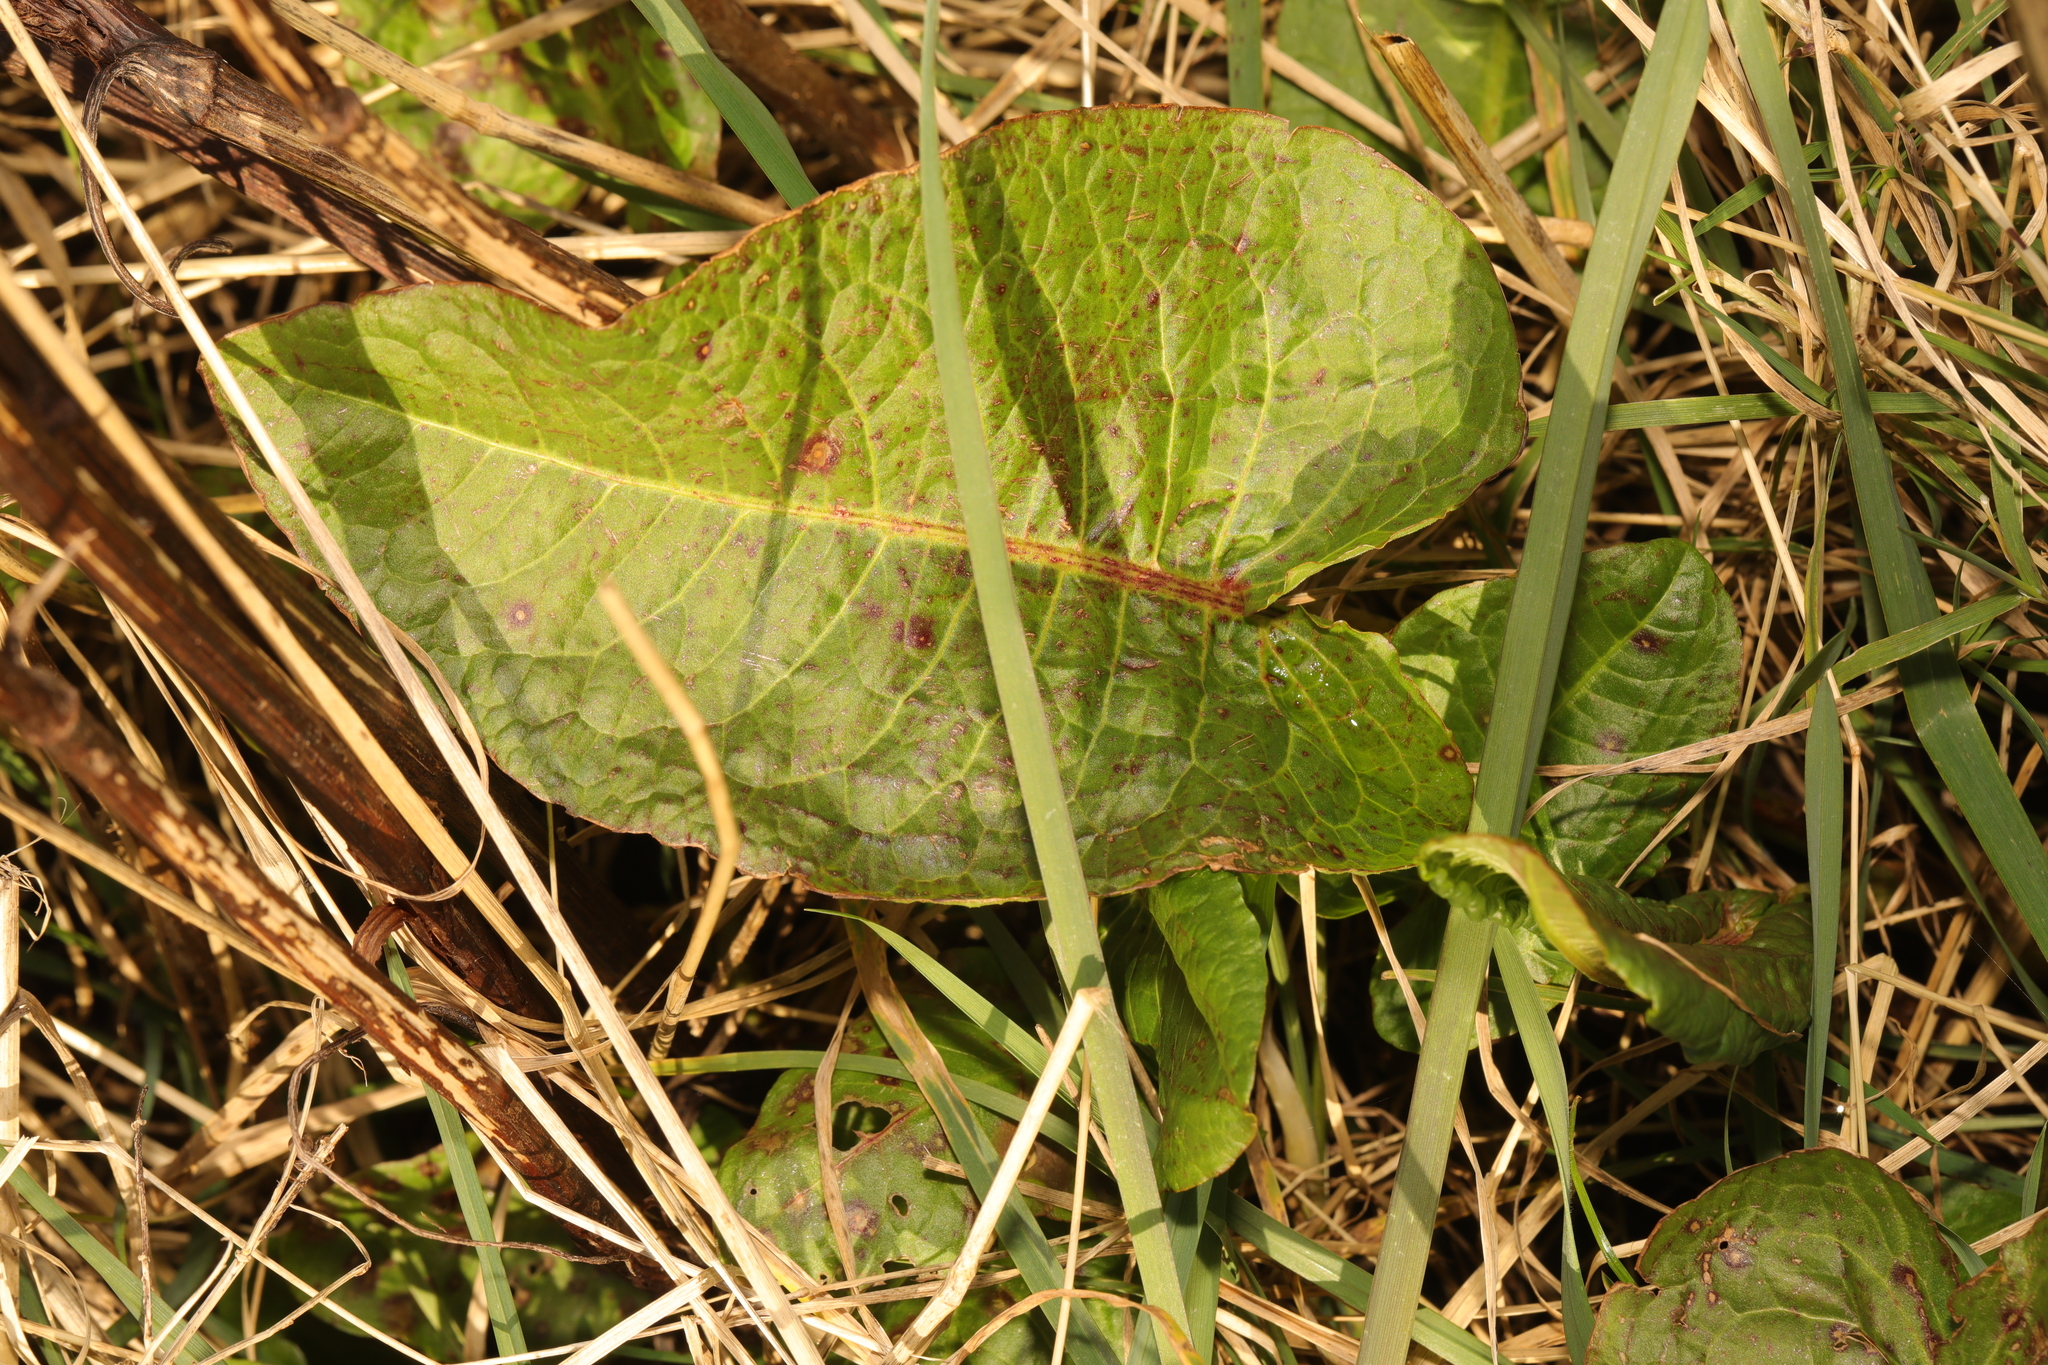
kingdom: Plantae
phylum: Tracheophyta
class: Magnoliopsida
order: Caryophyllales
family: Polygonaceae
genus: Rumex
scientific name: Rumex obtusifolius
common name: Bitter dock
